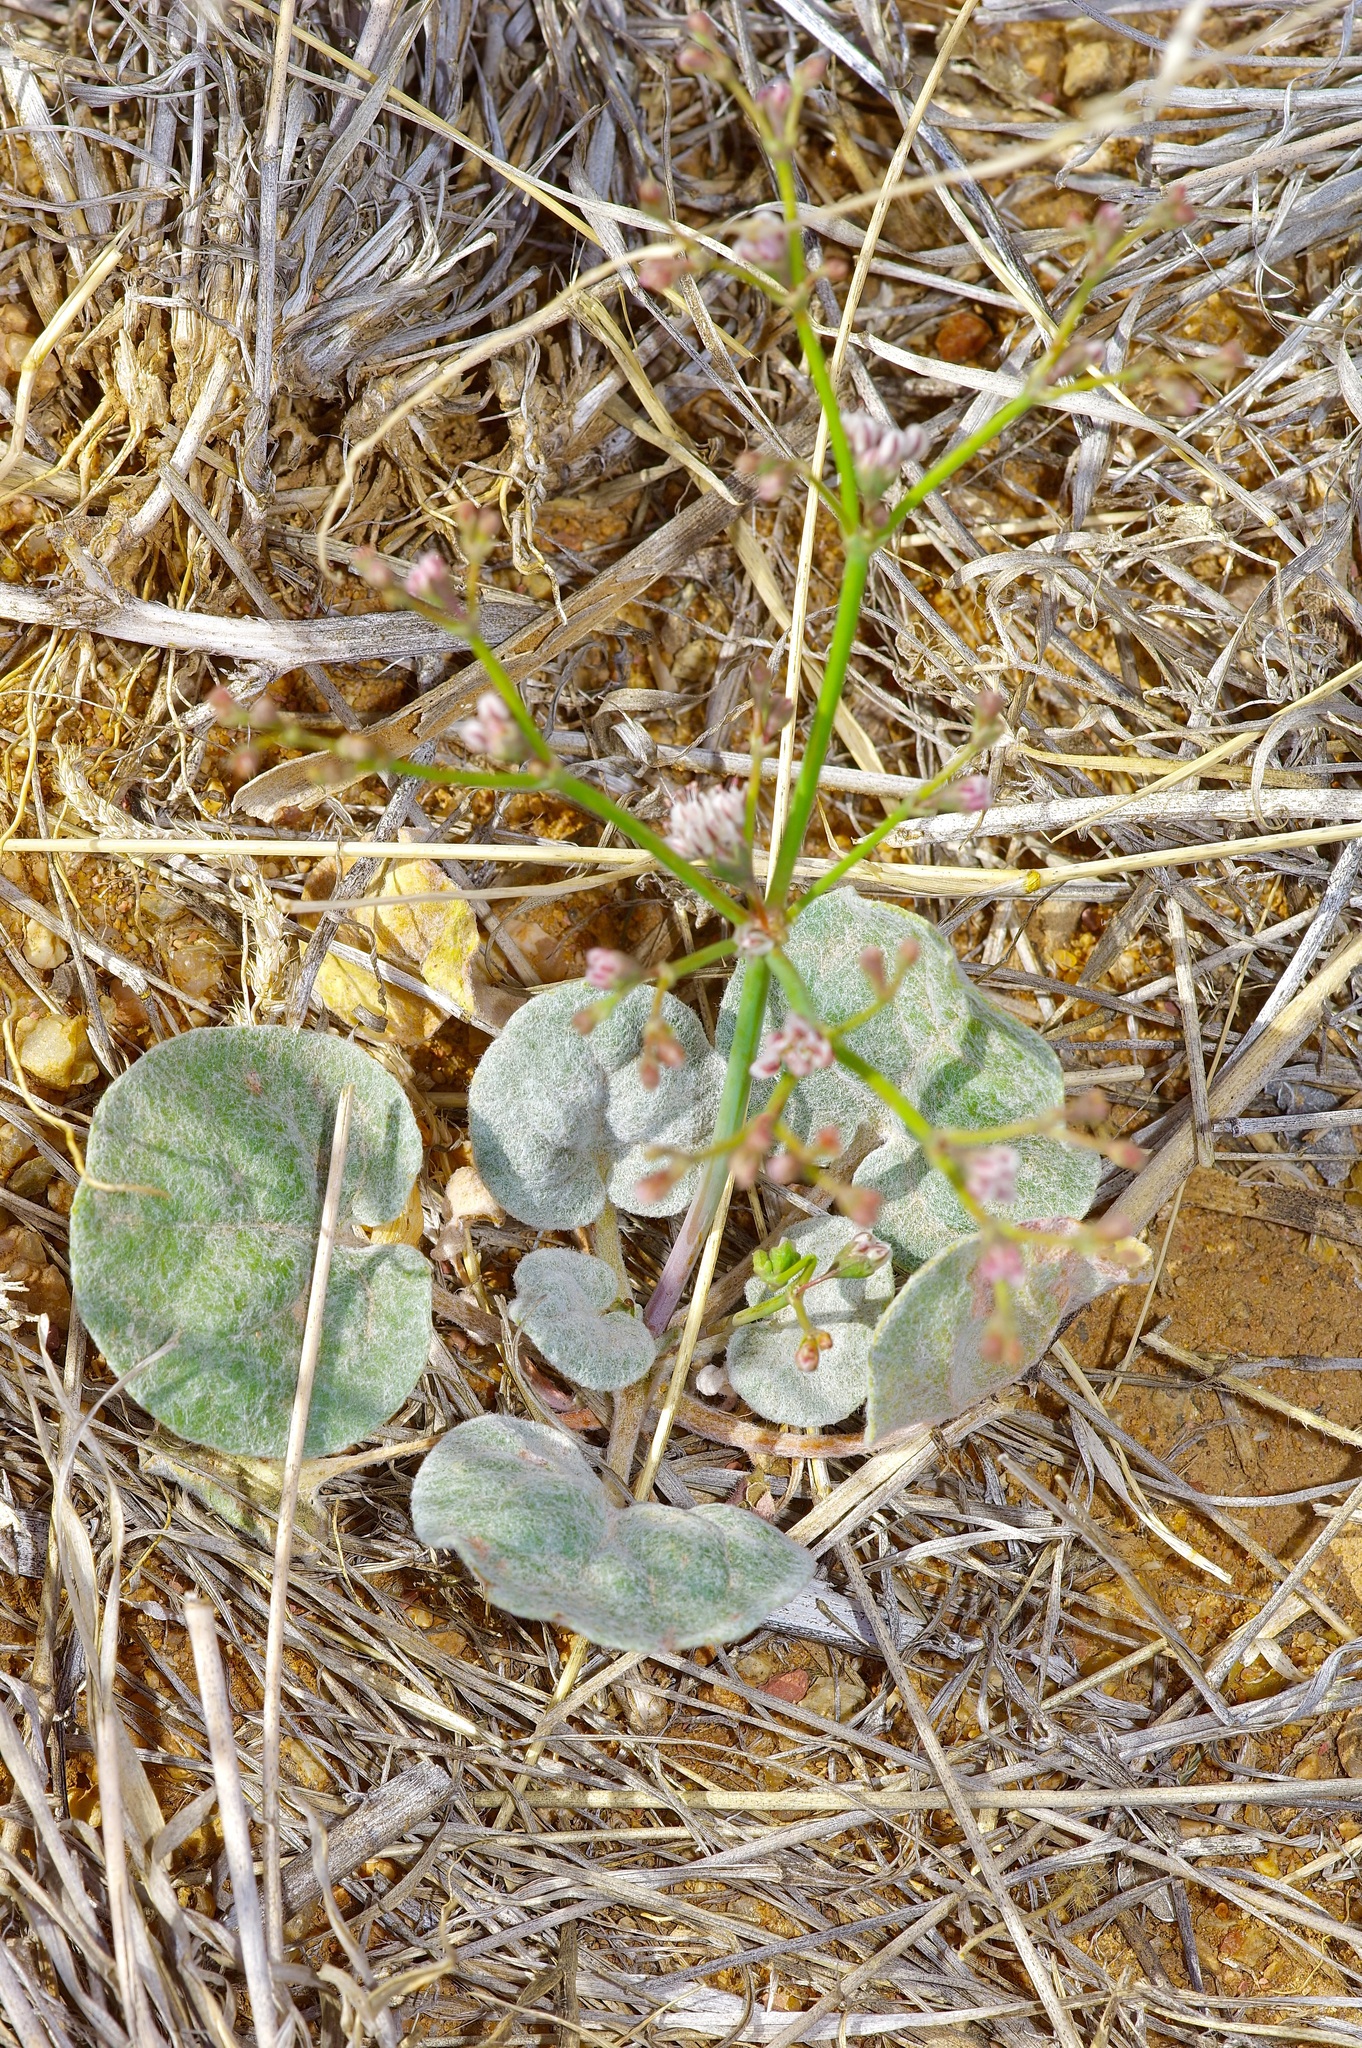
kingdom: Plantae
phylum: Tracheophyta
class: Magnoliopsida
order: Caryophyllales
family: Polygonaceae
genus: Eriogonum
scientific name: Eriogonum rotundifolium
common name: Round-leaf wild buckwheat
